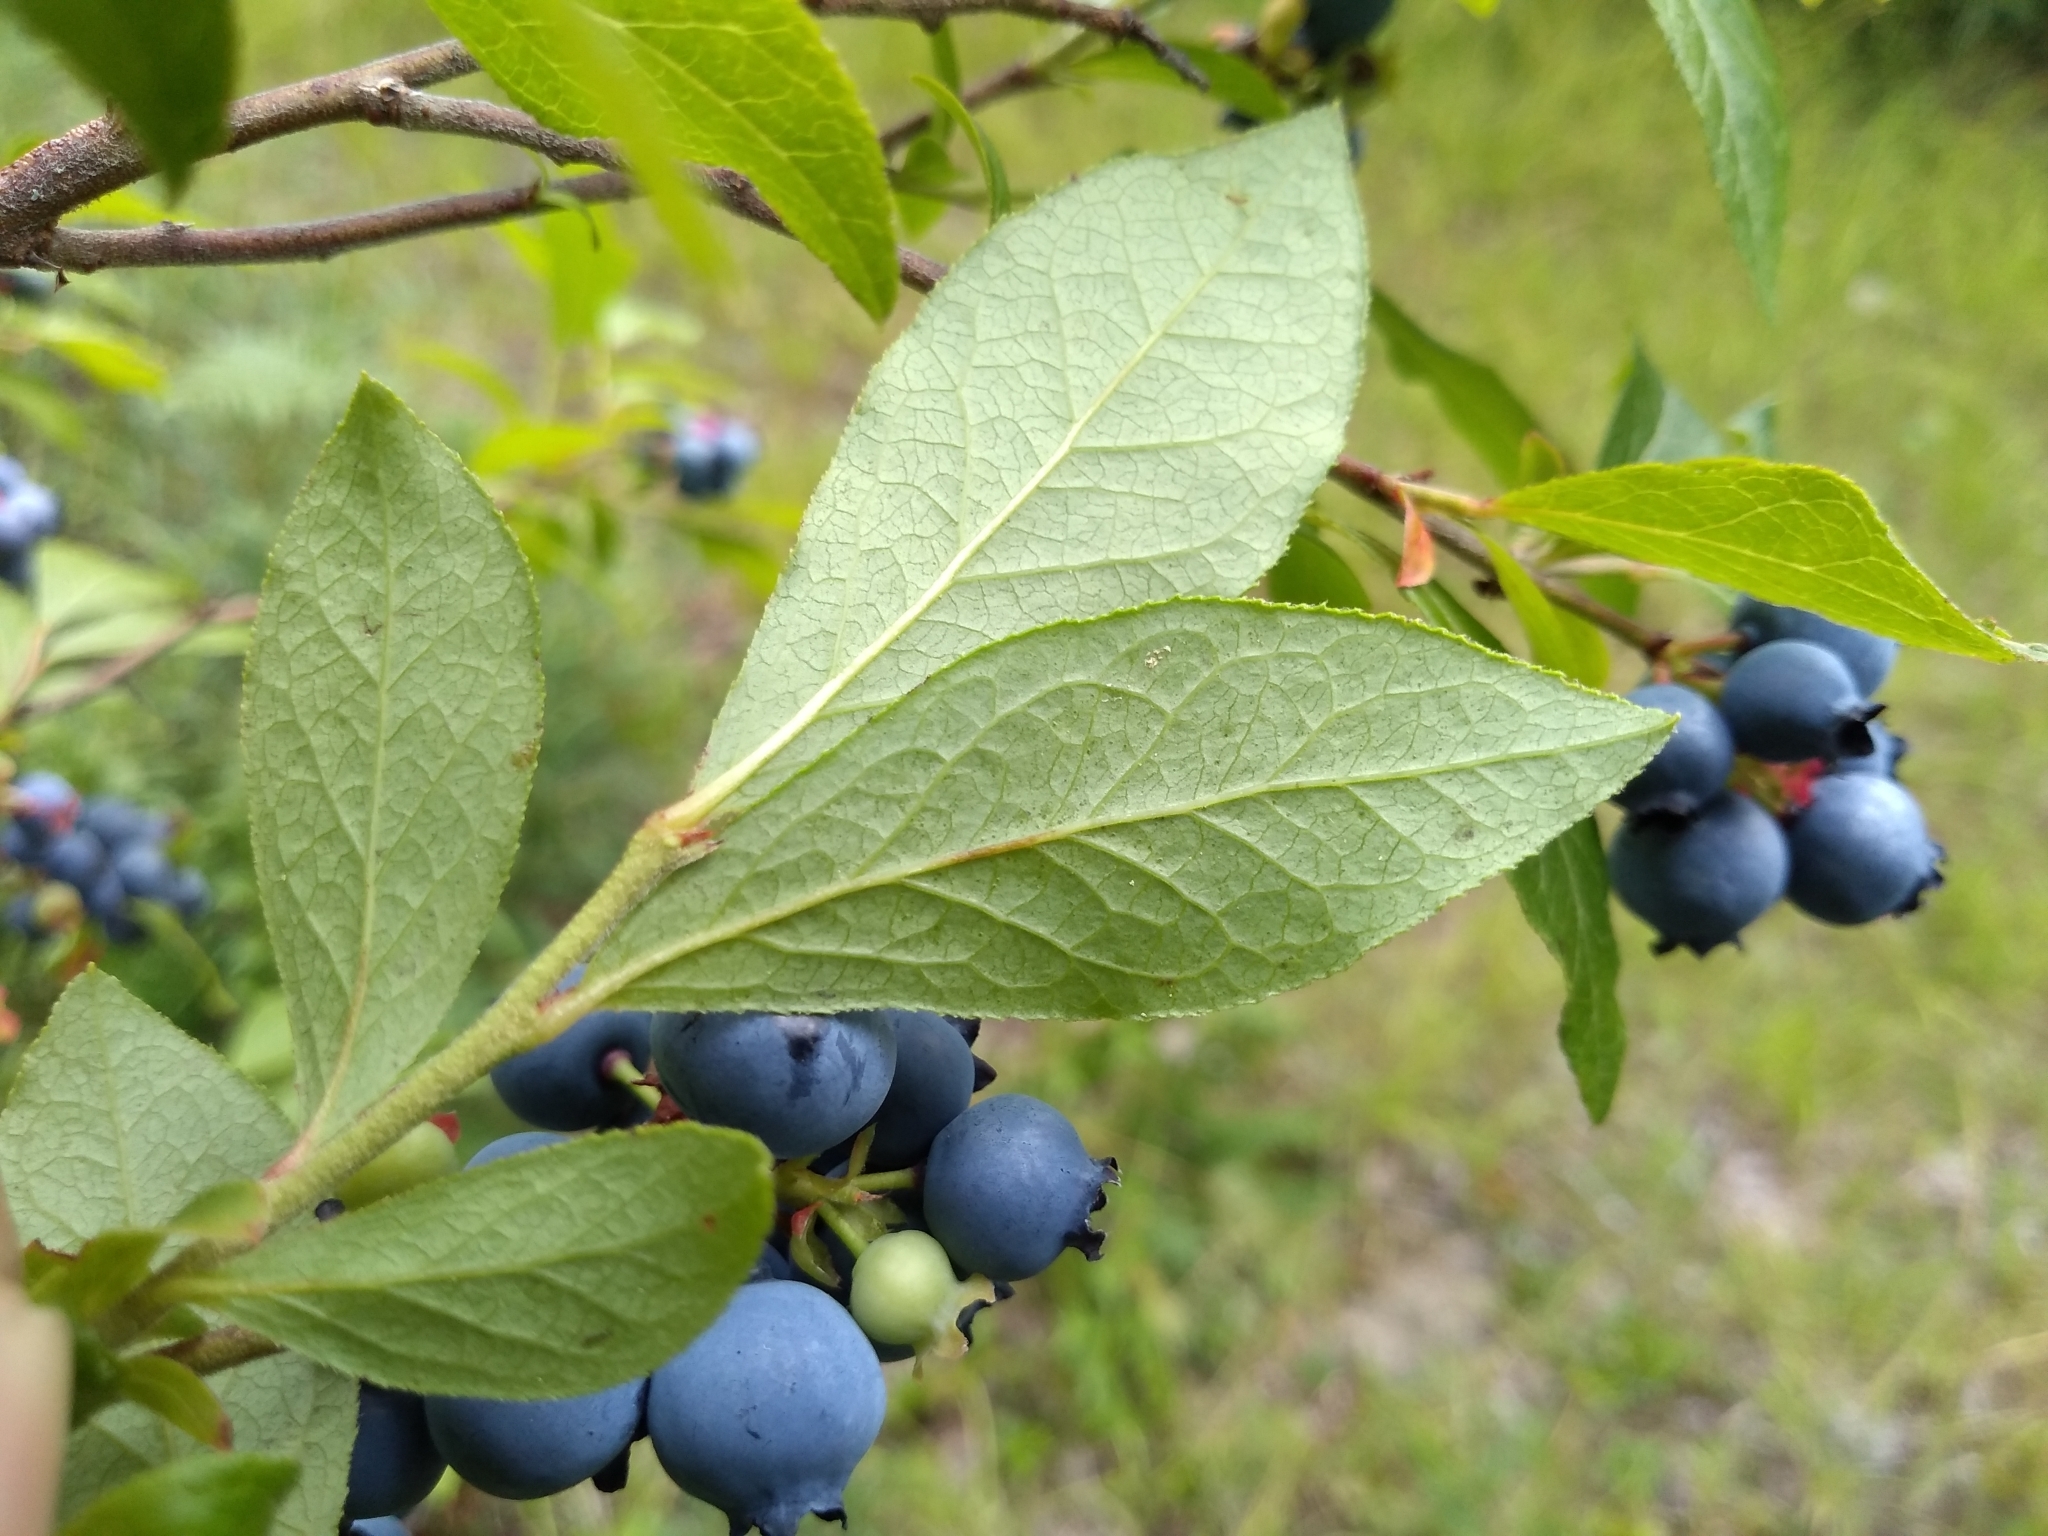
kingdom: Plantae
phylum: Tracheophyta
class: Magnoliopsida
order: Ericales
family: Ericaceae
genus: Vaccinium
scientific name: Vaccinium corymbosum
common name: Blueberry
